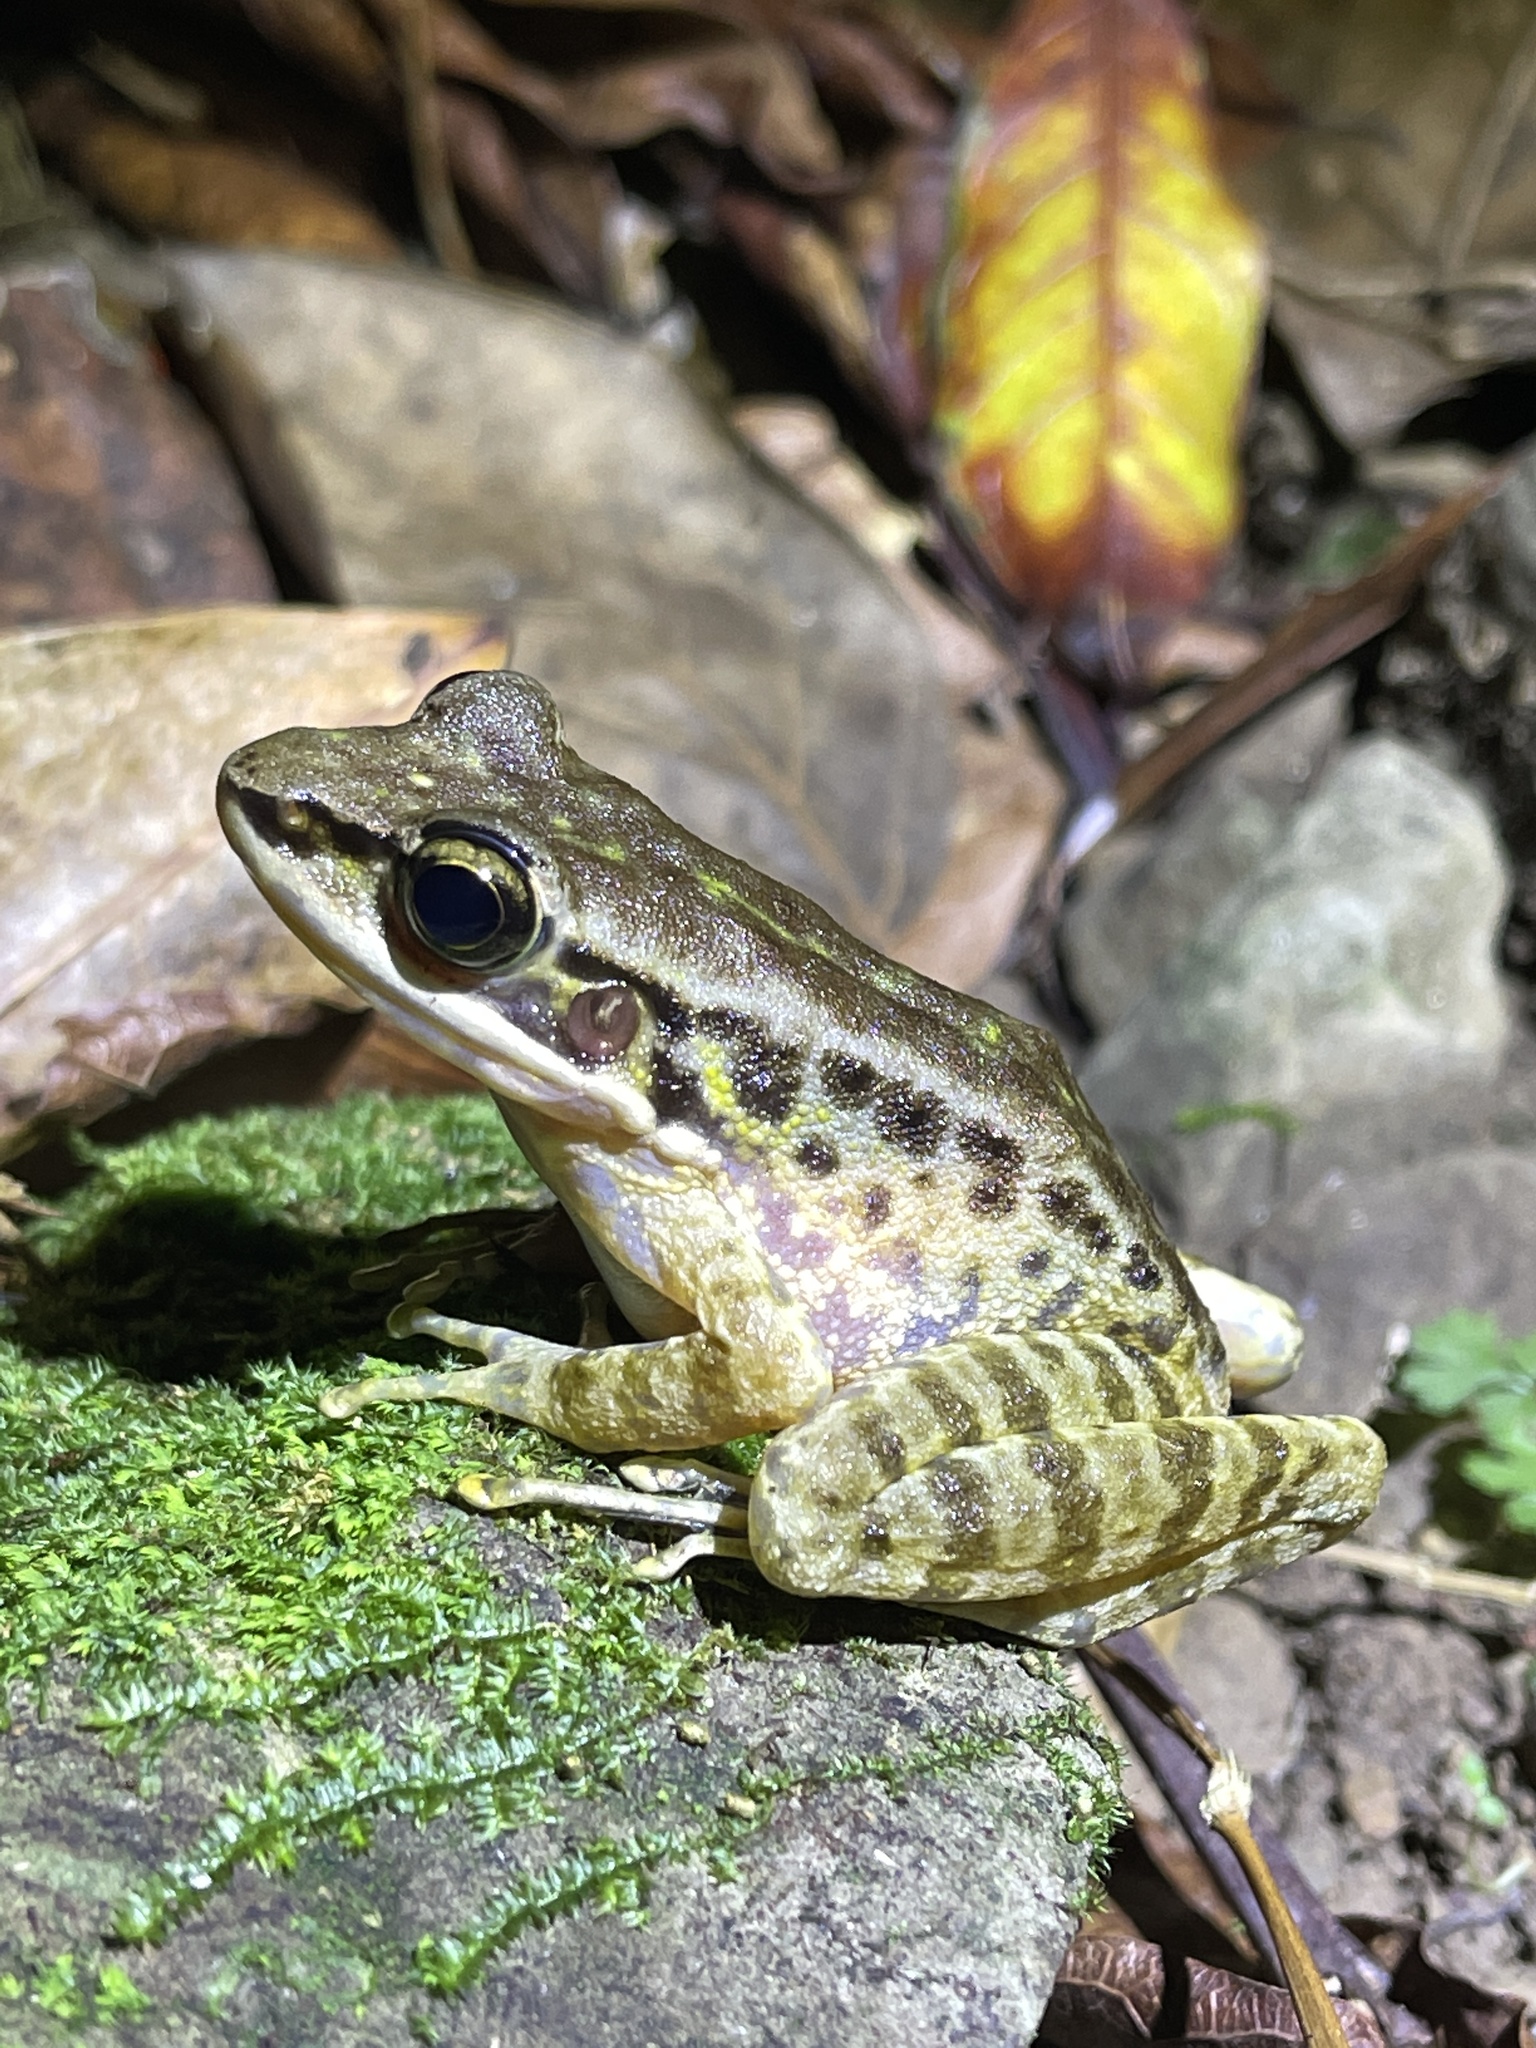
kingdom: Animalia
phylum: Chordata
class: Amphibia
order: Anura
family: Ranidae
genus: Odorrana
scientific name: Odorrana swinhoana
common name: Bangkimtsing frog
